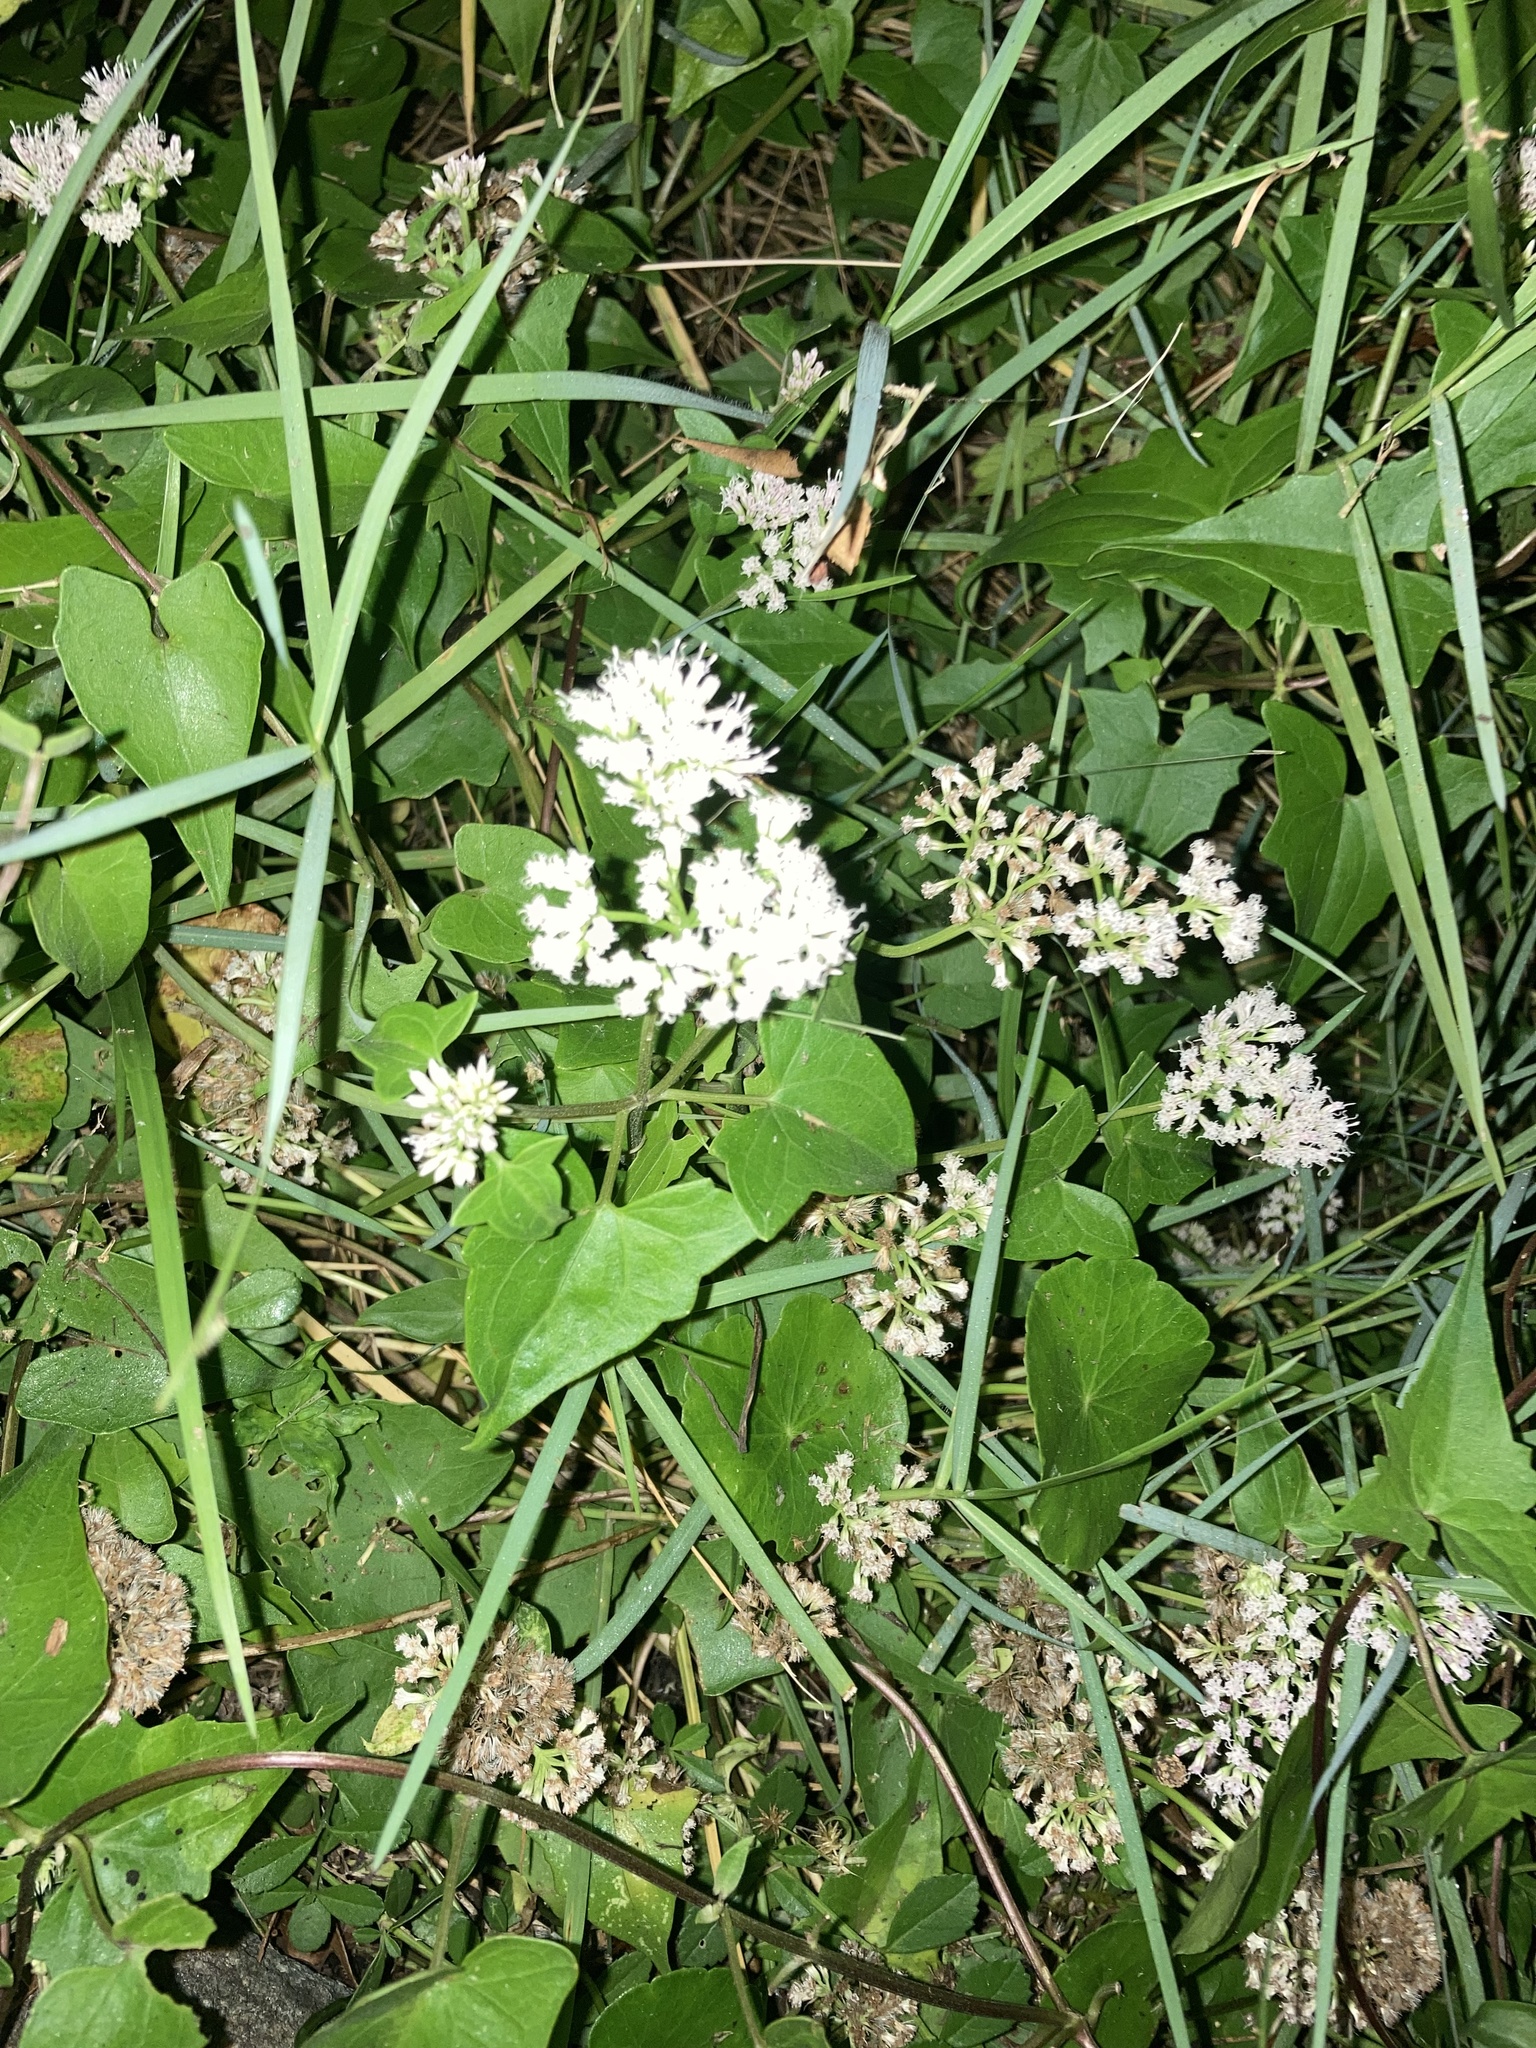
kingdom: Plantae
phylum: Tracheophyta
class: Magnoliopsida
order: Asterales
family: Asteraceae
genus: Mikania
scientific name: Mikania scandens
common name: Climbing hempvine
